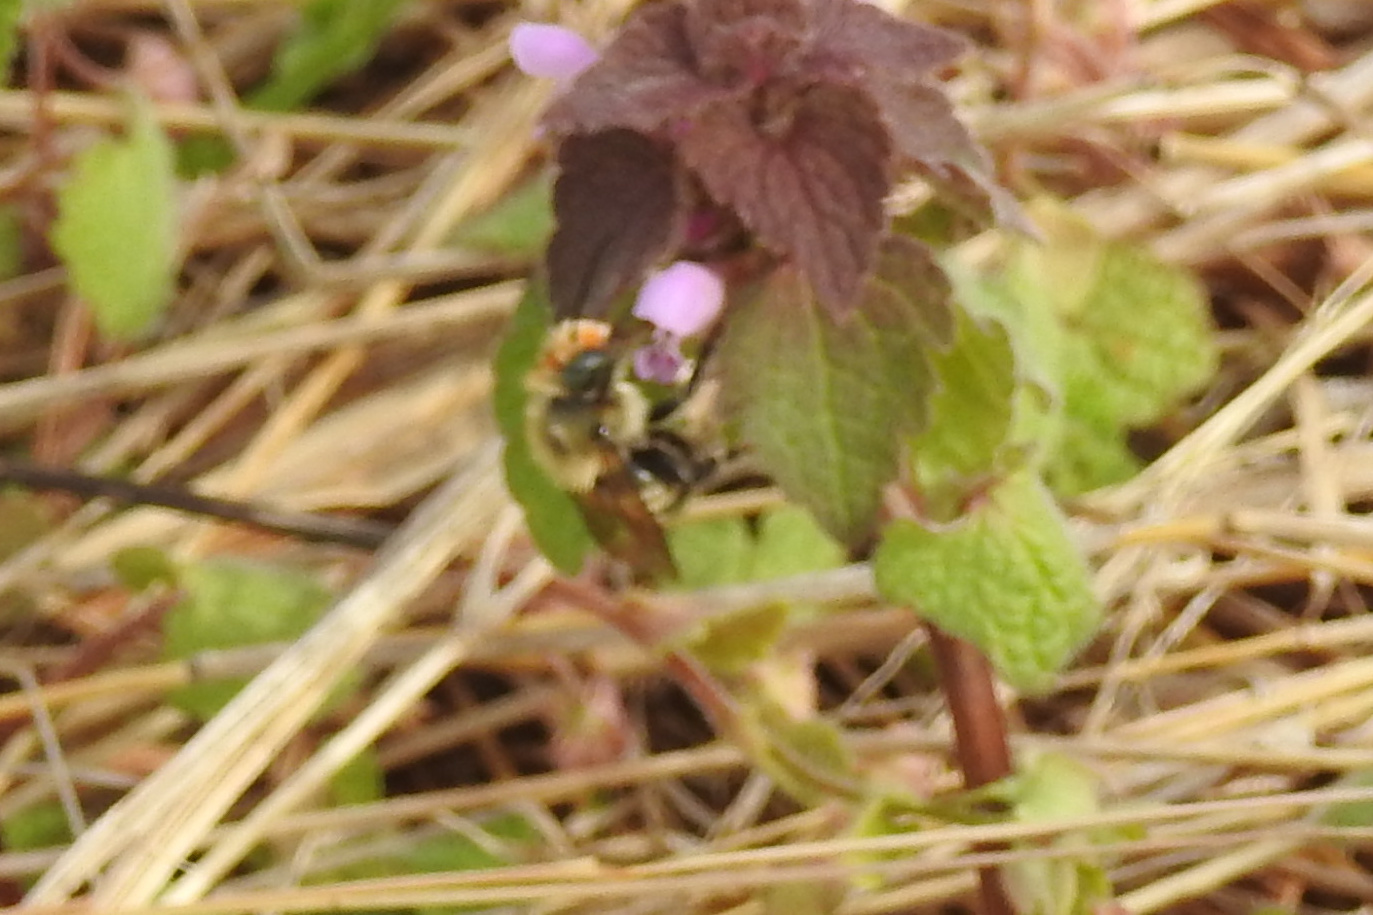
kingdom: Animalia
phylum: Arthropoda
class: Insecta
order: Hymenoptera
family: Megachilidae
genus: Osmia
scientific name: Osmia bucephala
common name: Bufflehead mason bee
